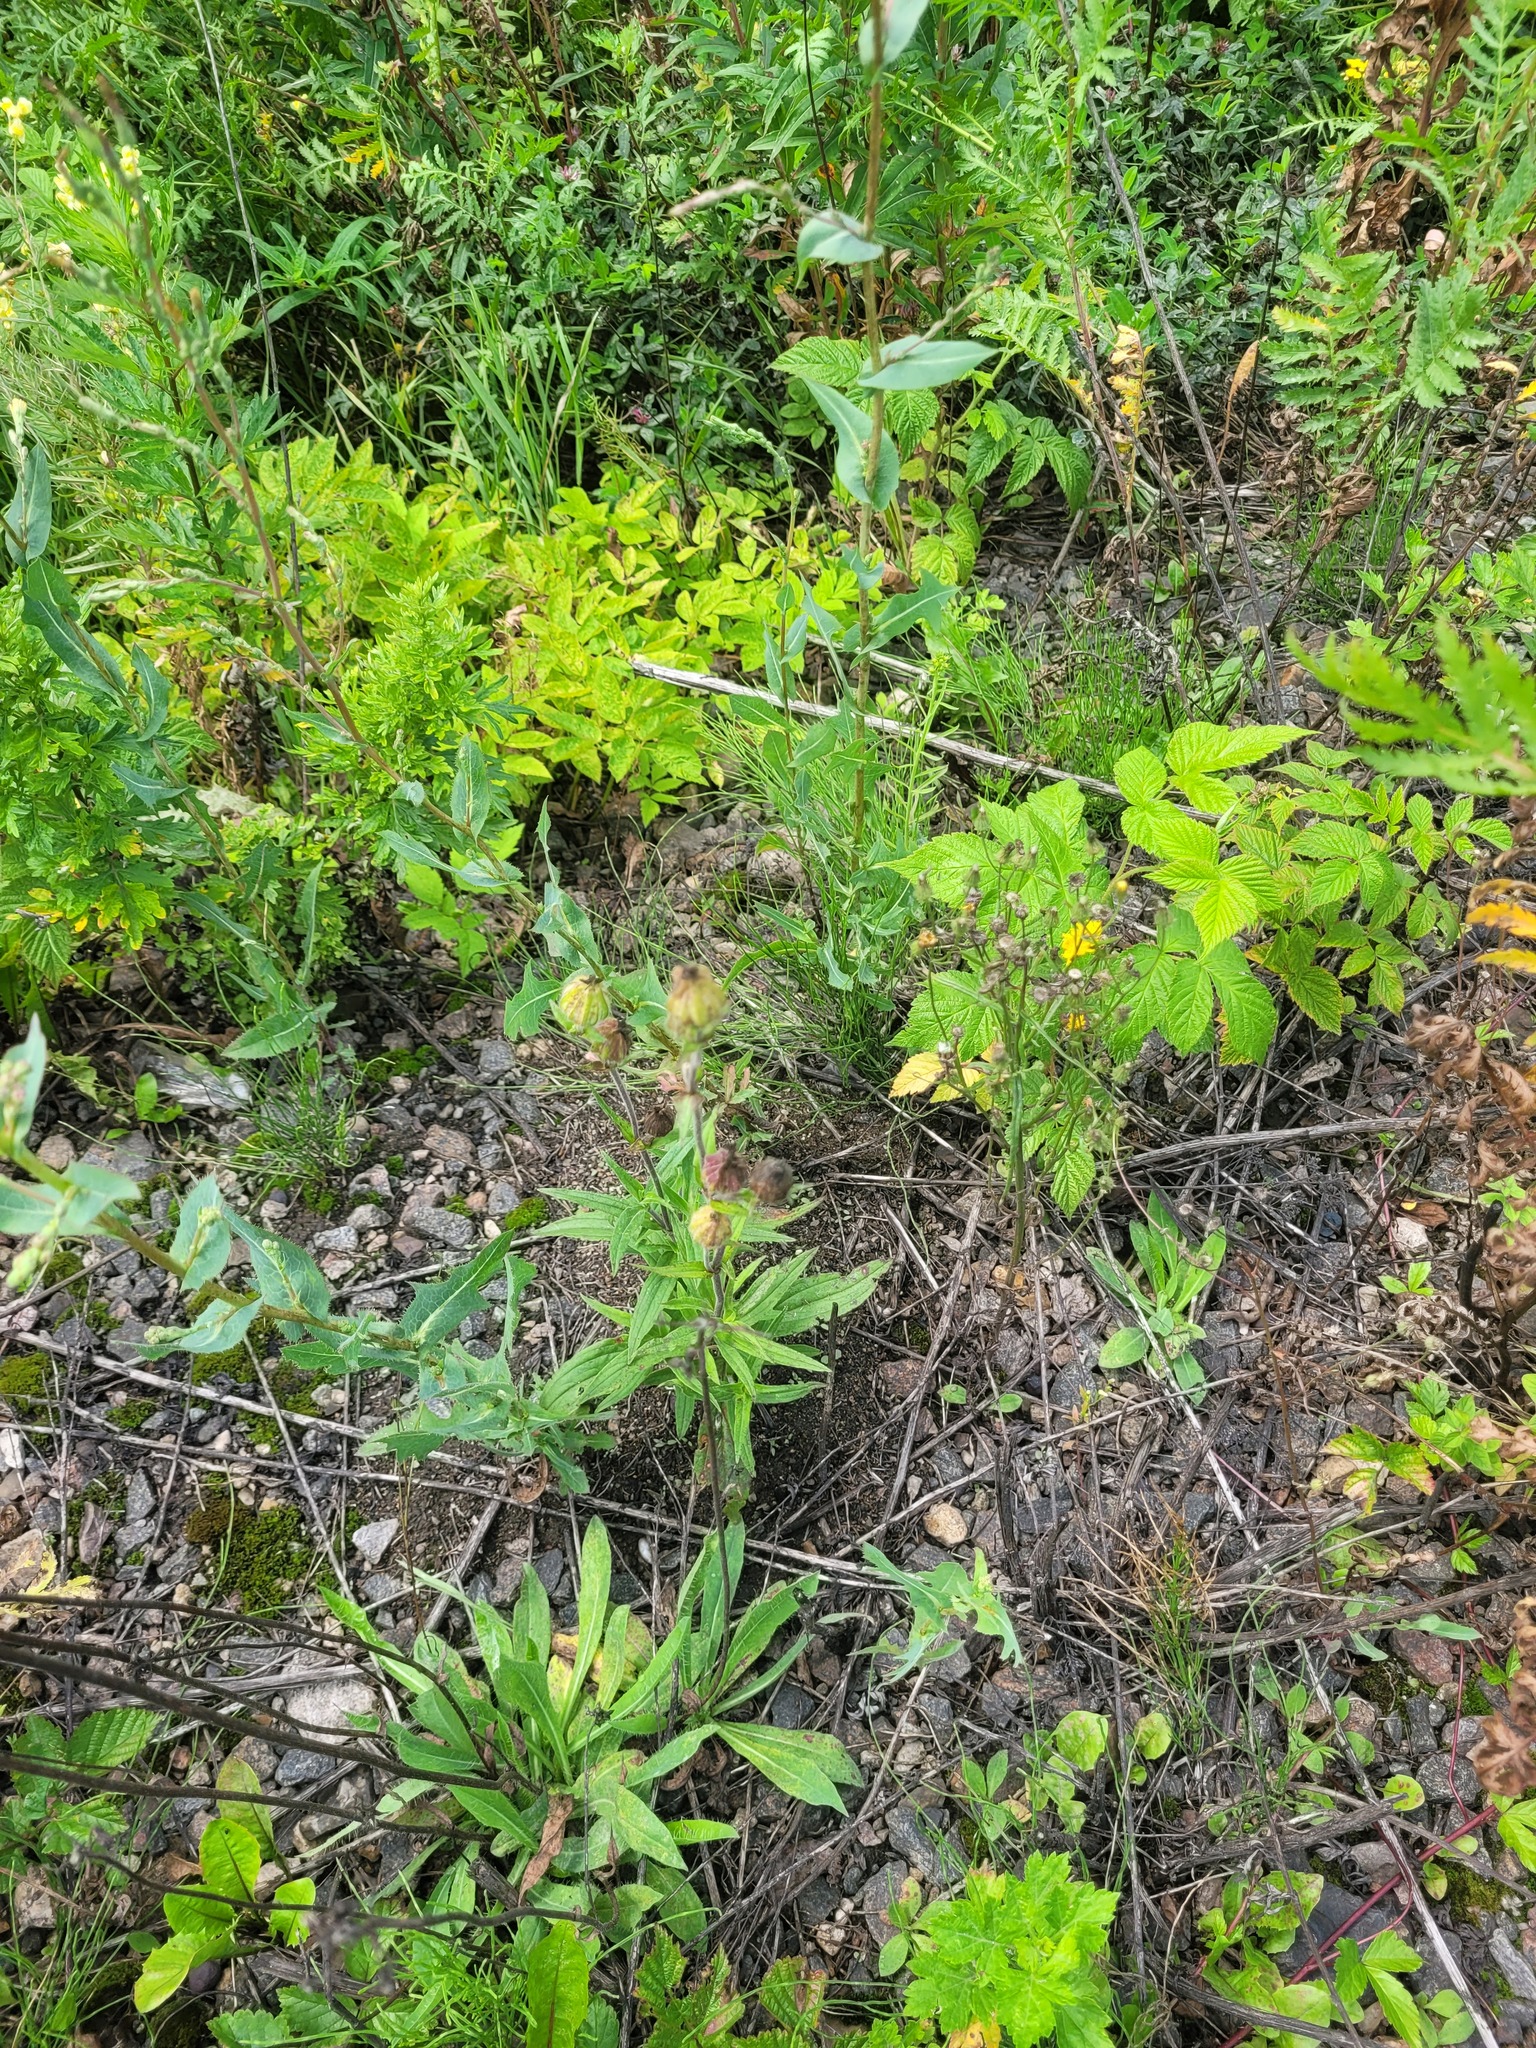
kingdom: Plantae
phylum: Tracheophyta
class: Magnoliopsida
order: Caryophyllales
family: Caryophyllaceae
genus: Silene
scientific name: Silene latifolia
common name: White campion
